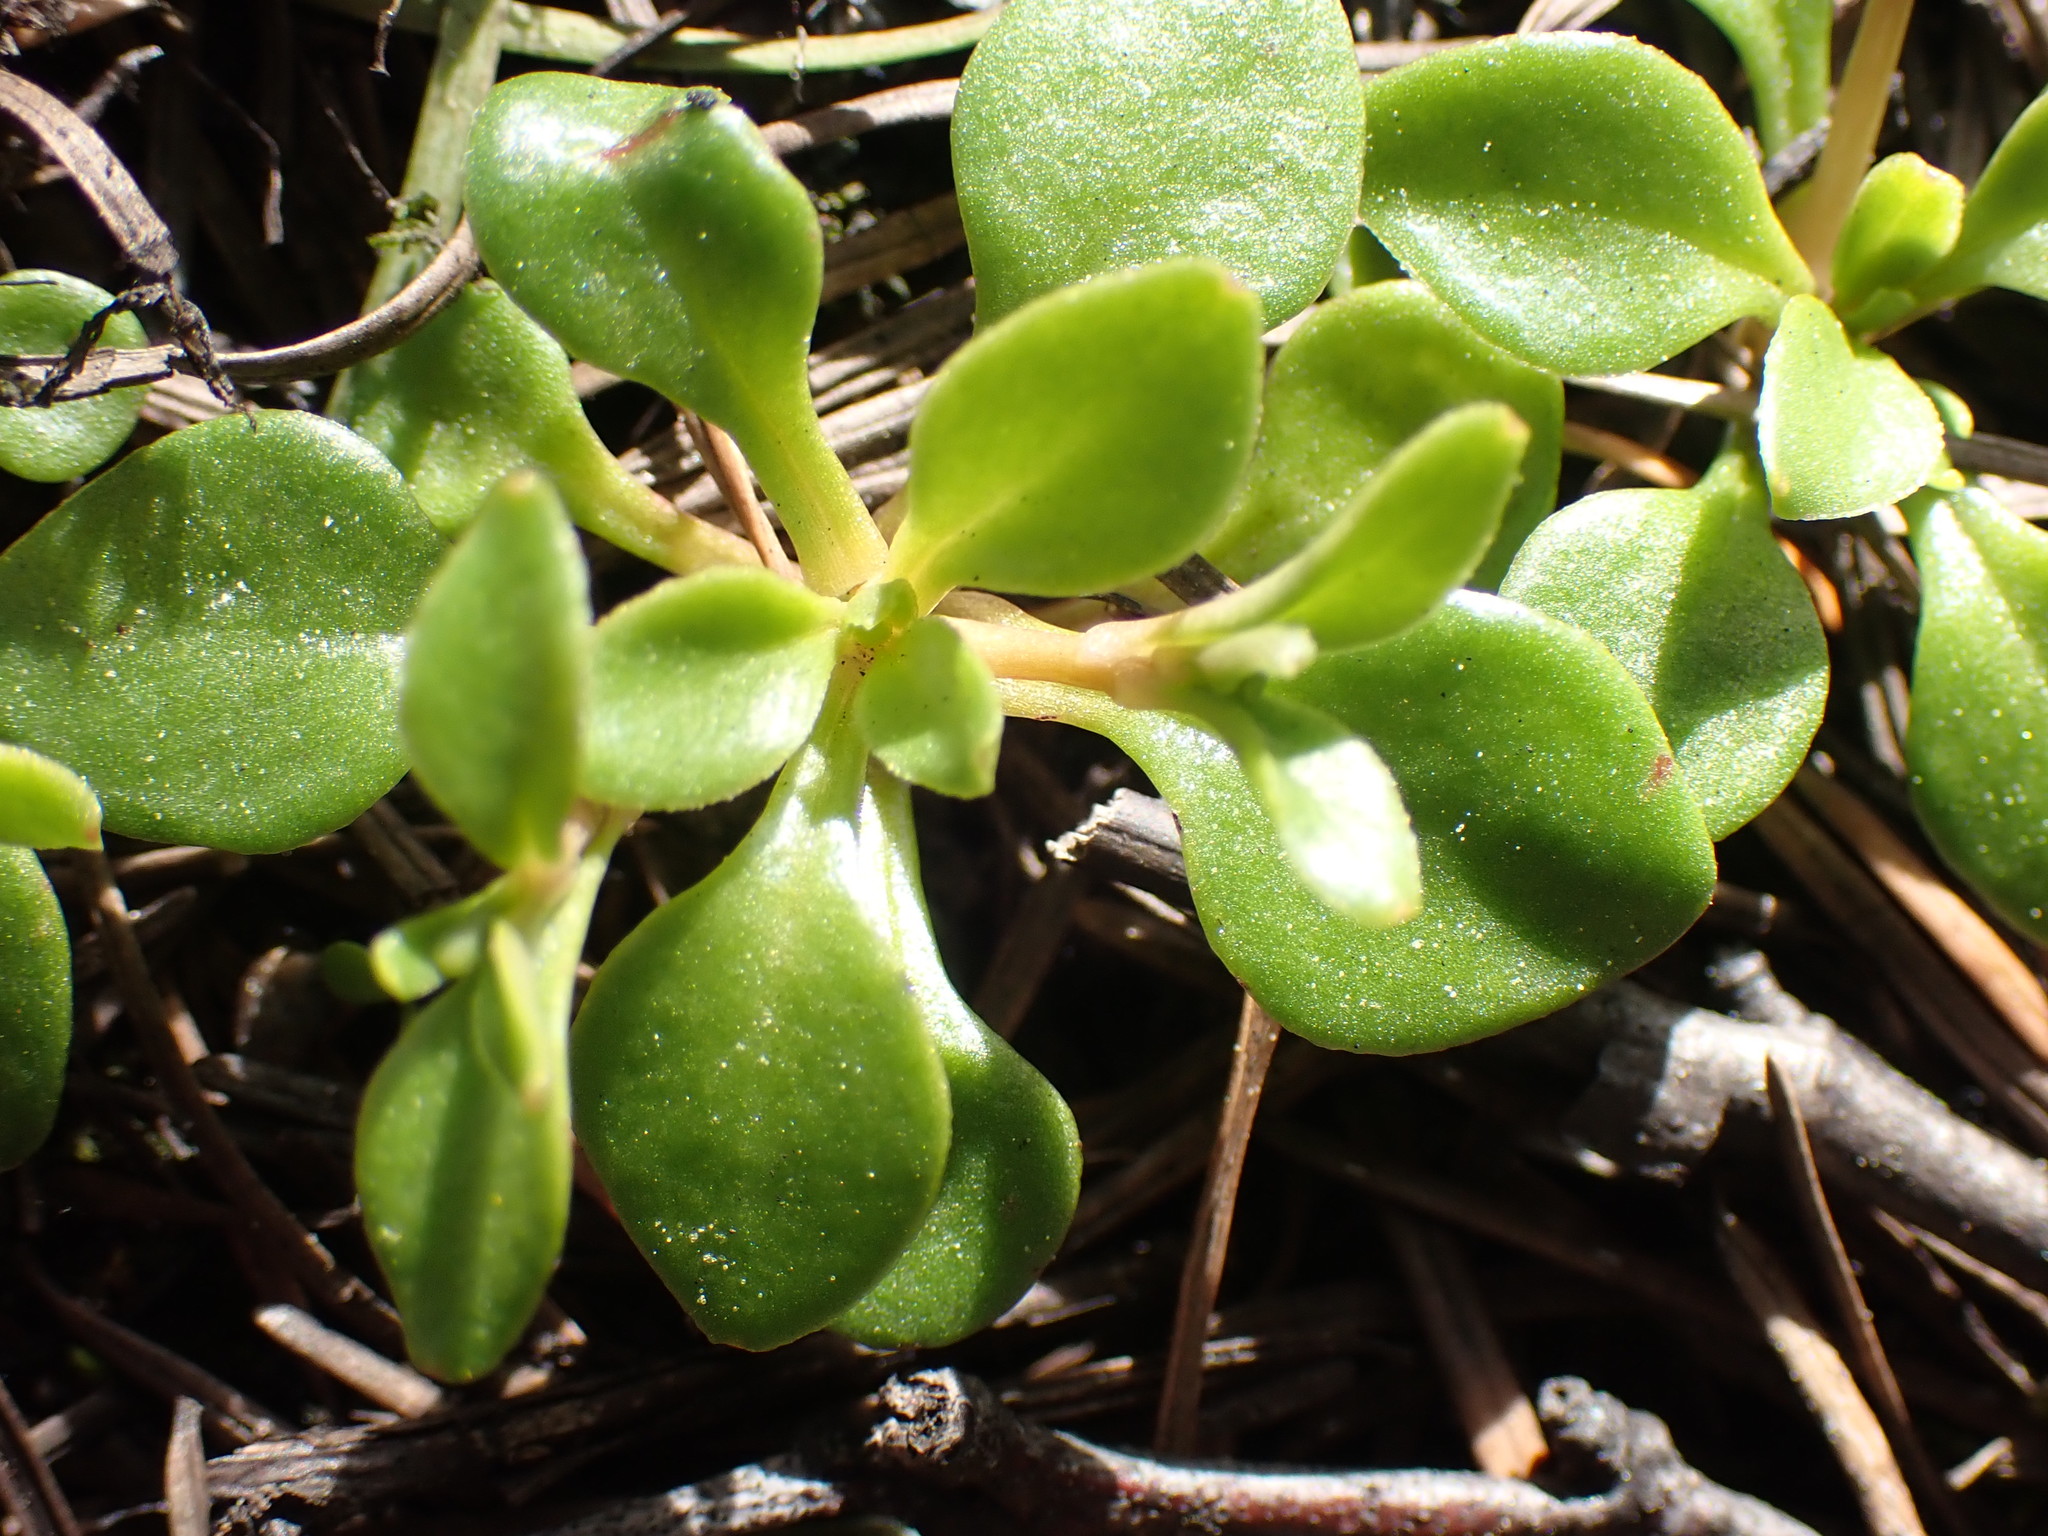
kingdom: Plantae
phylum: Tracheophyta
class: Magnoliopsida
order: Caryophyllales
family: Montiaceae
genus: Montia
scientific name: Montia parvifolia
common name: Small-leaved blinks
